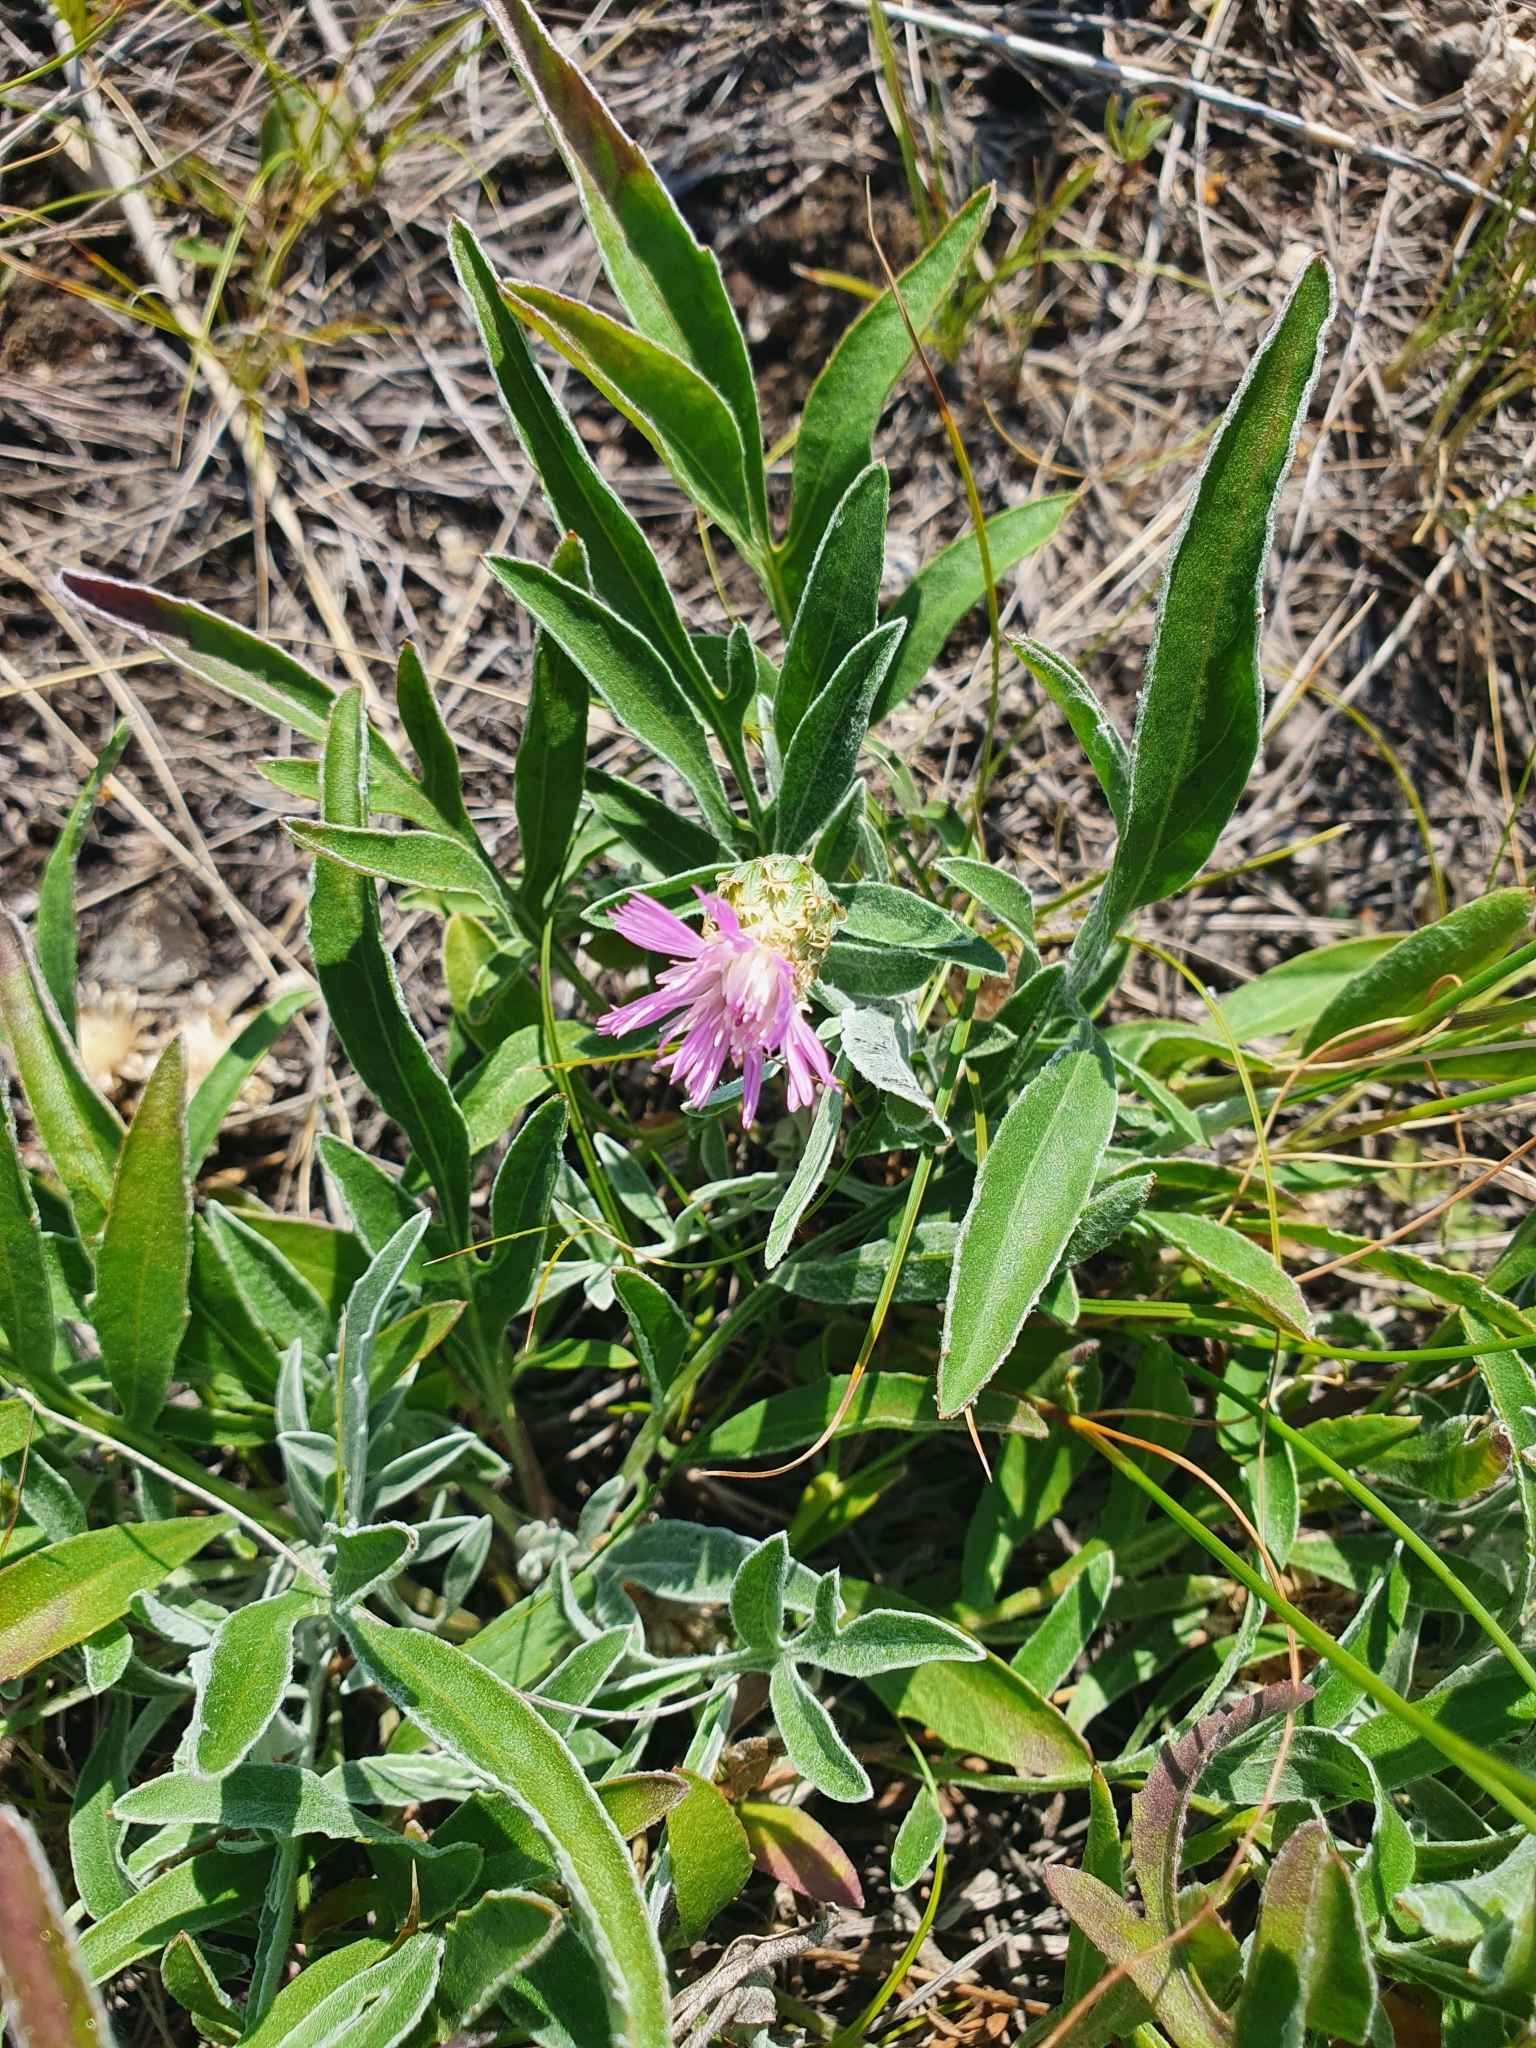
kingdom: Plantae
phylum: Tracheophyta
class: Magnoliopsida
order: Asterales
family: Asteraceae
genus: Psephellus
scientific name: Psephellus marschallianus
